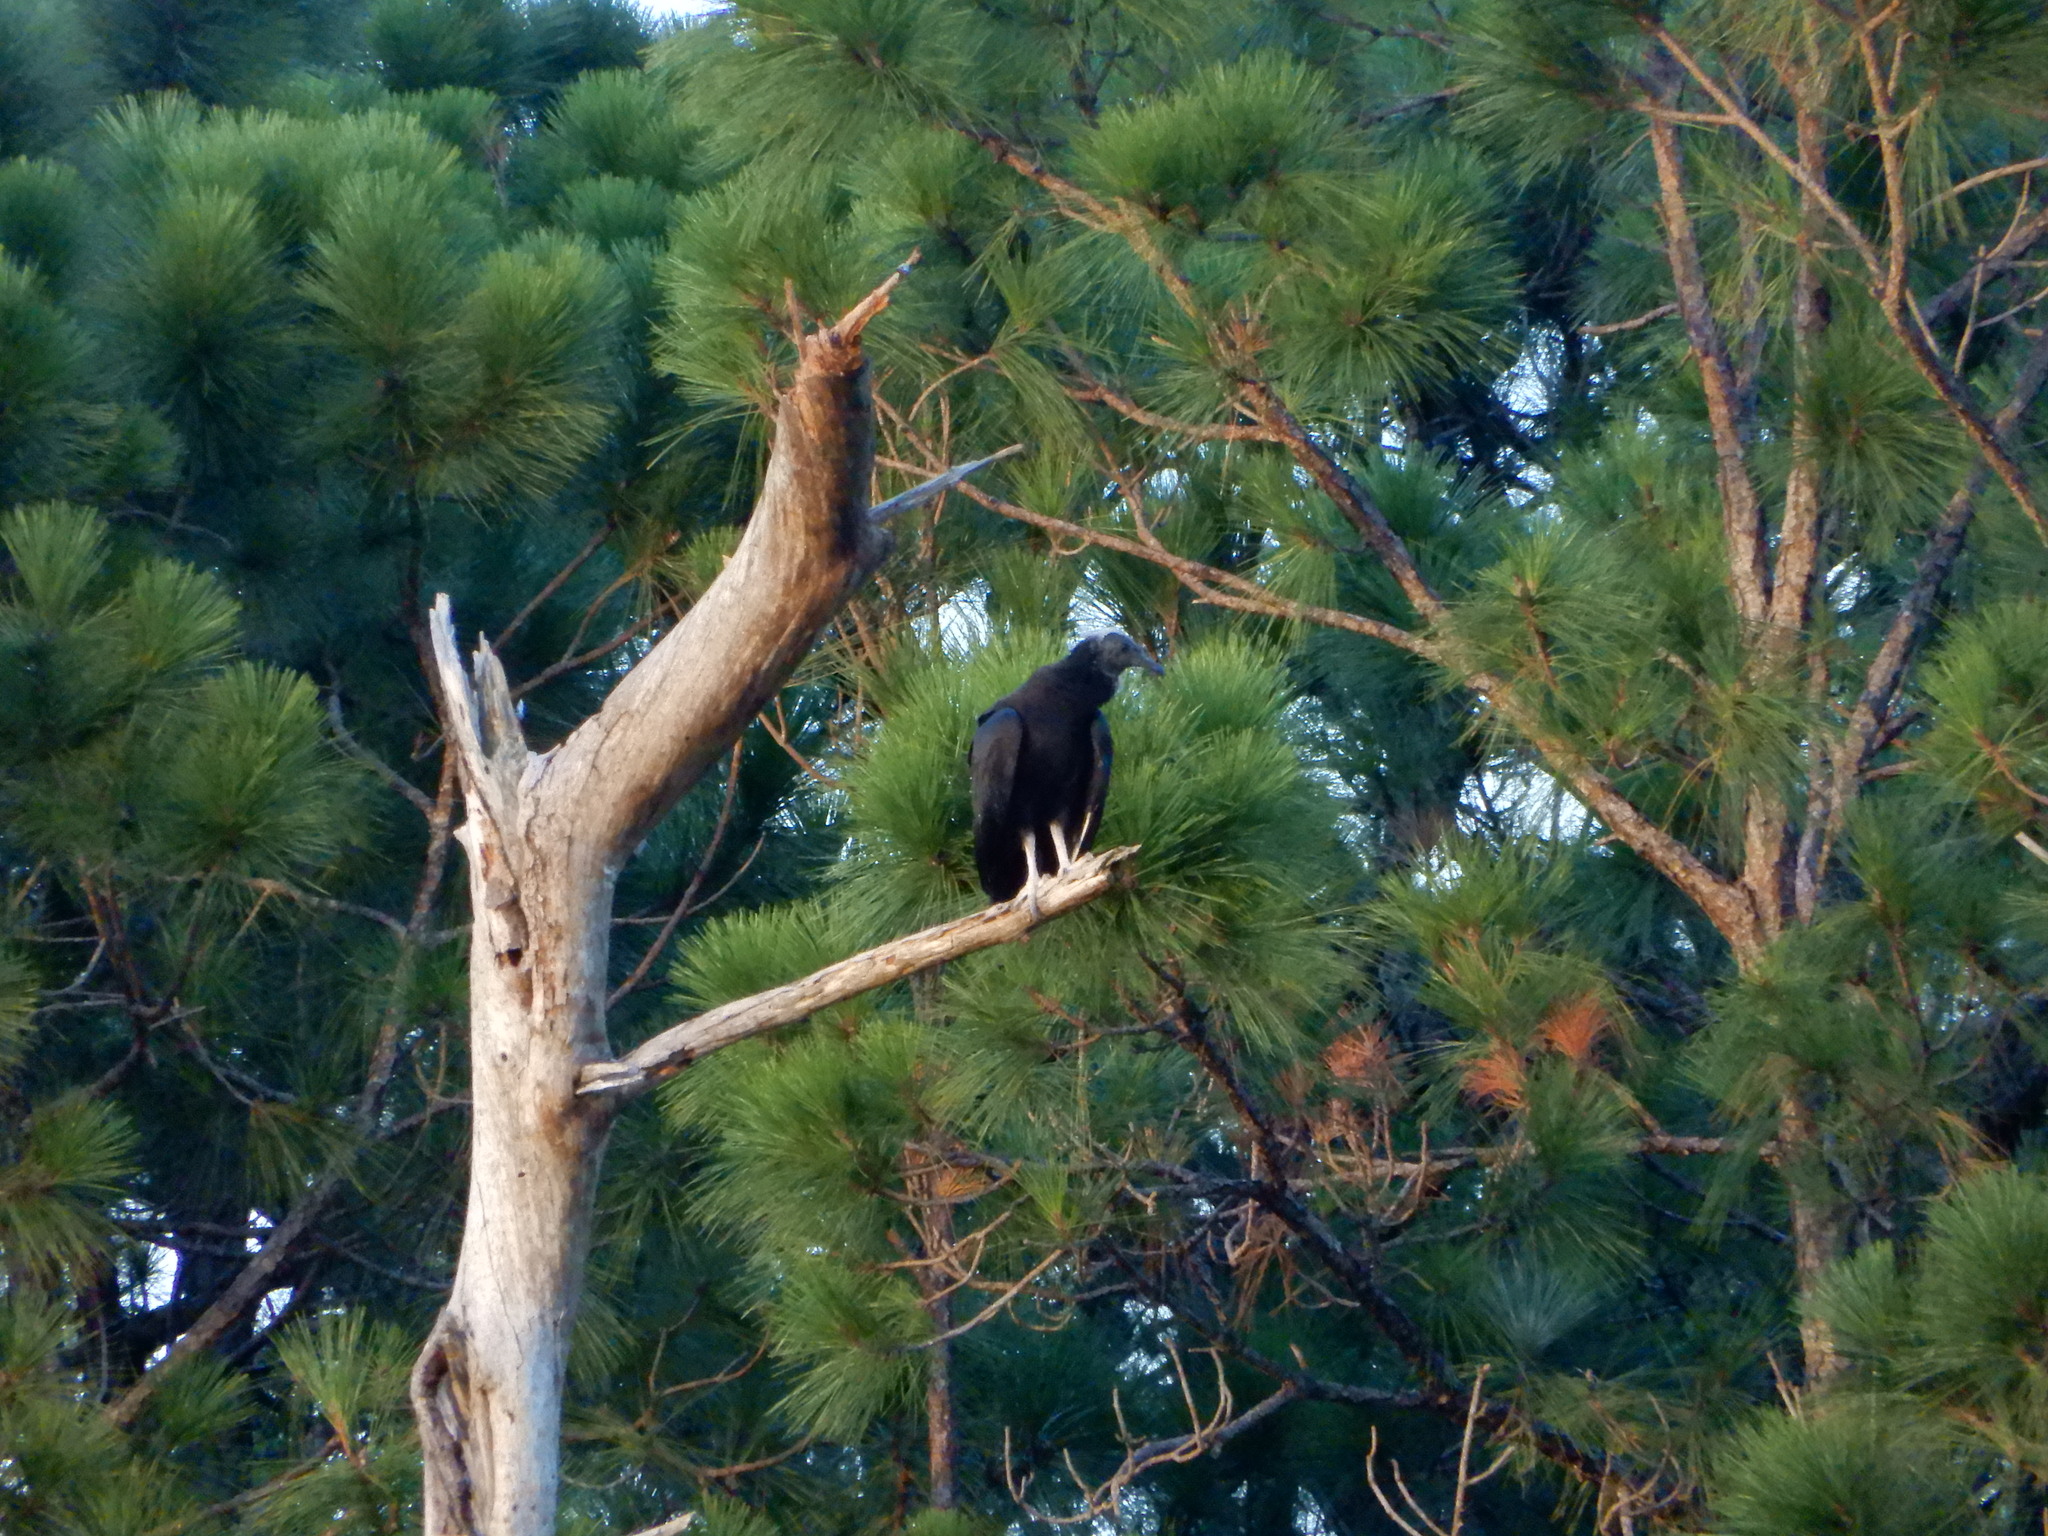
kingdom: Animalia
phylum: Chordata
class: Aves
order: Accipitriformes
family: Cathartidae
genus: Coragyps
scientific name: Coragyps atratus
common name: Black vulture
